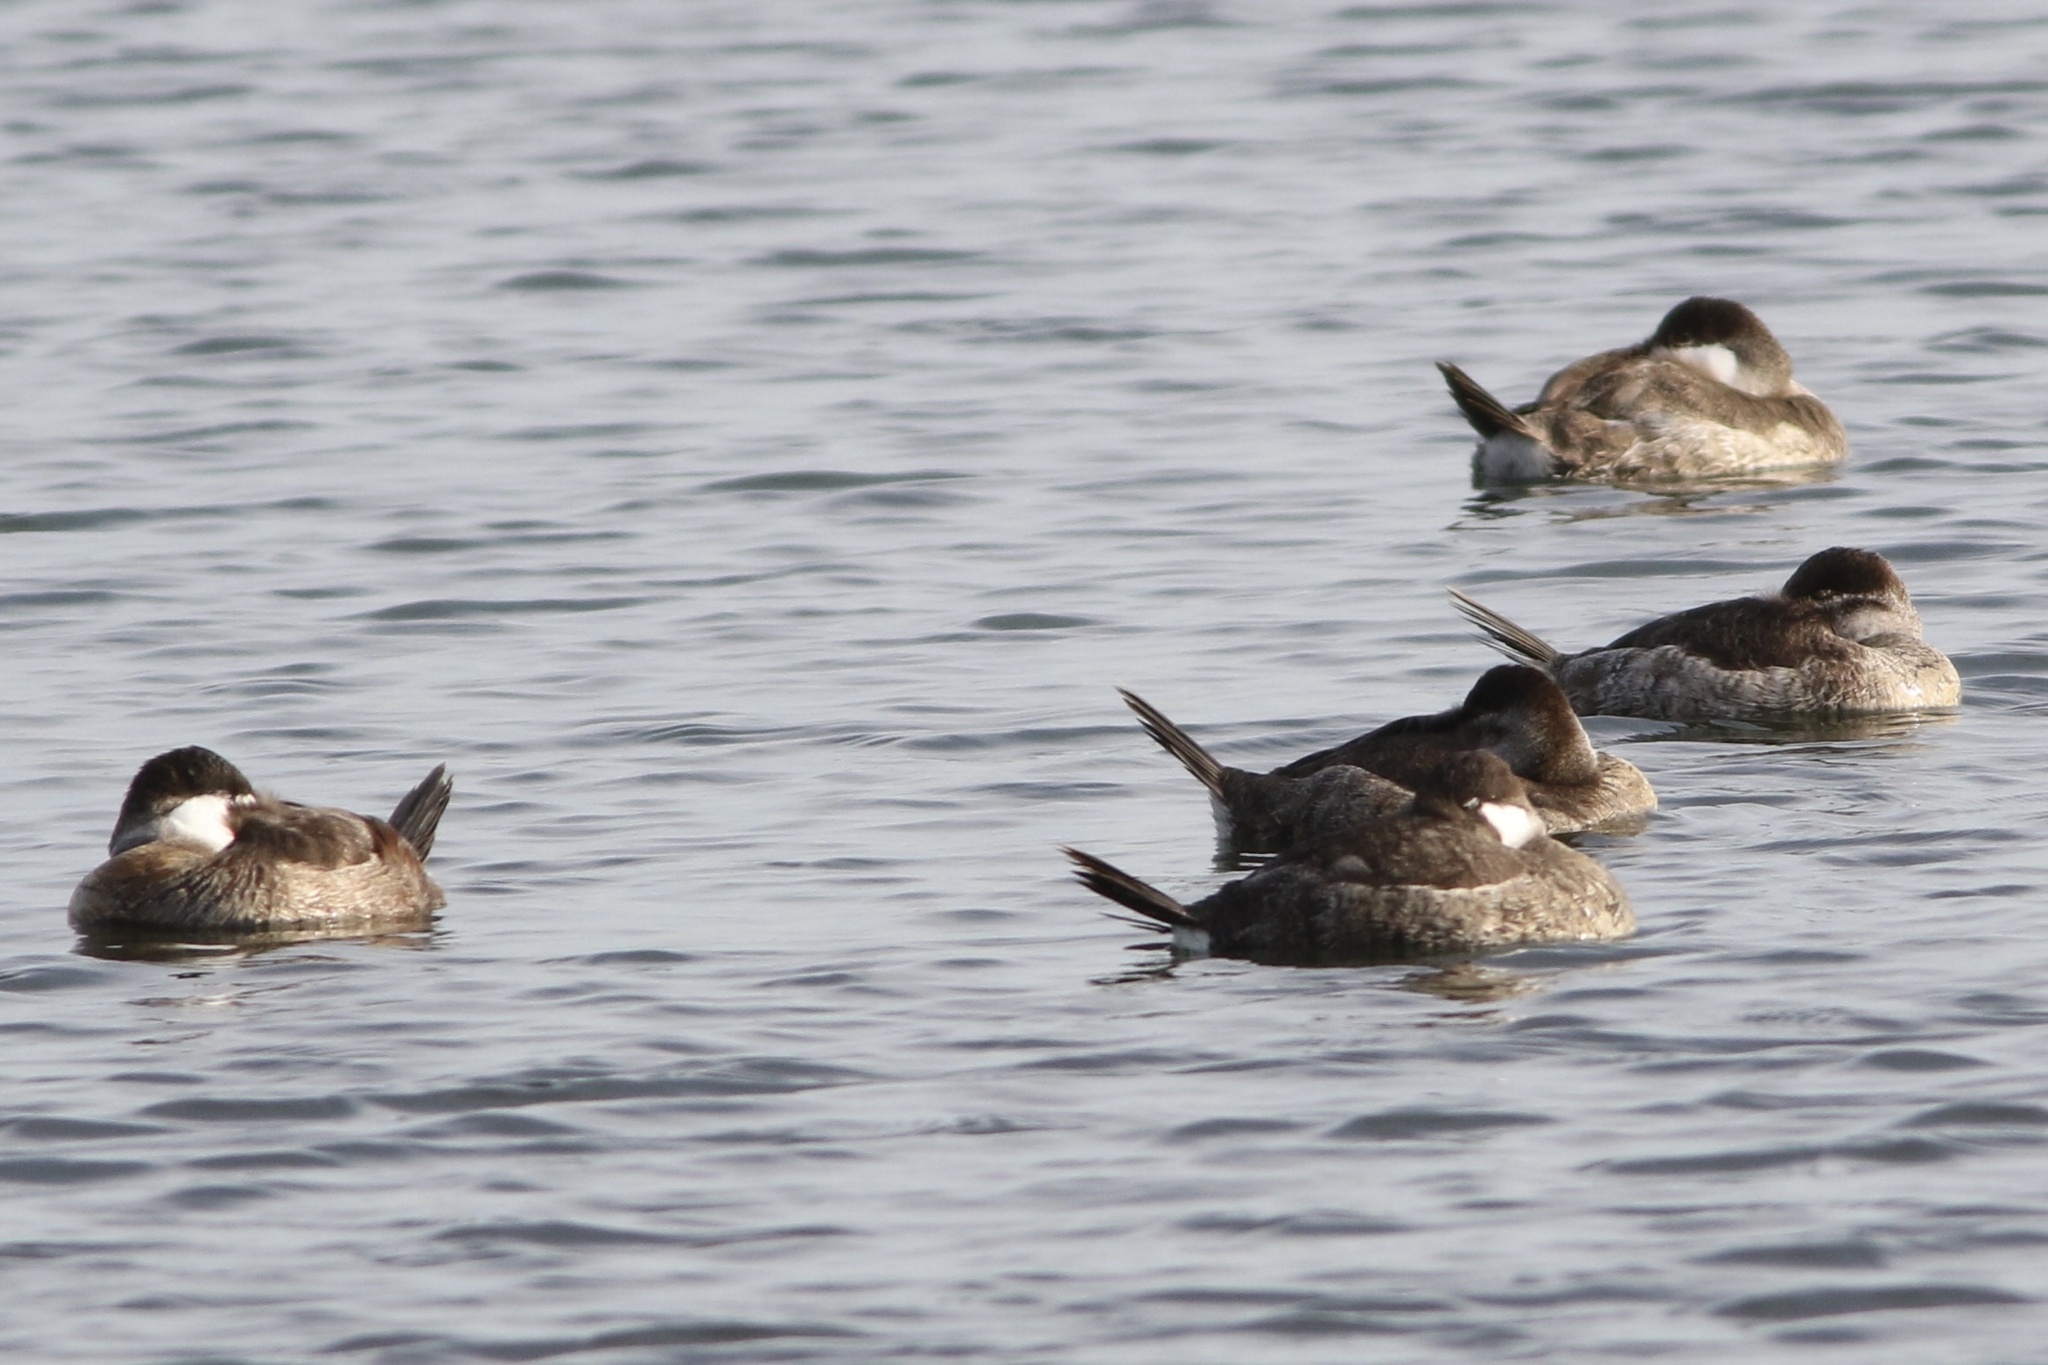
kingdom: Animalia
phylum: Chordata
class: Aves
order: Anseriformes
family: Anatidae
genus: Oxyura
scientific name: Oxyura jamaicensis
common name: Ruddy duck
